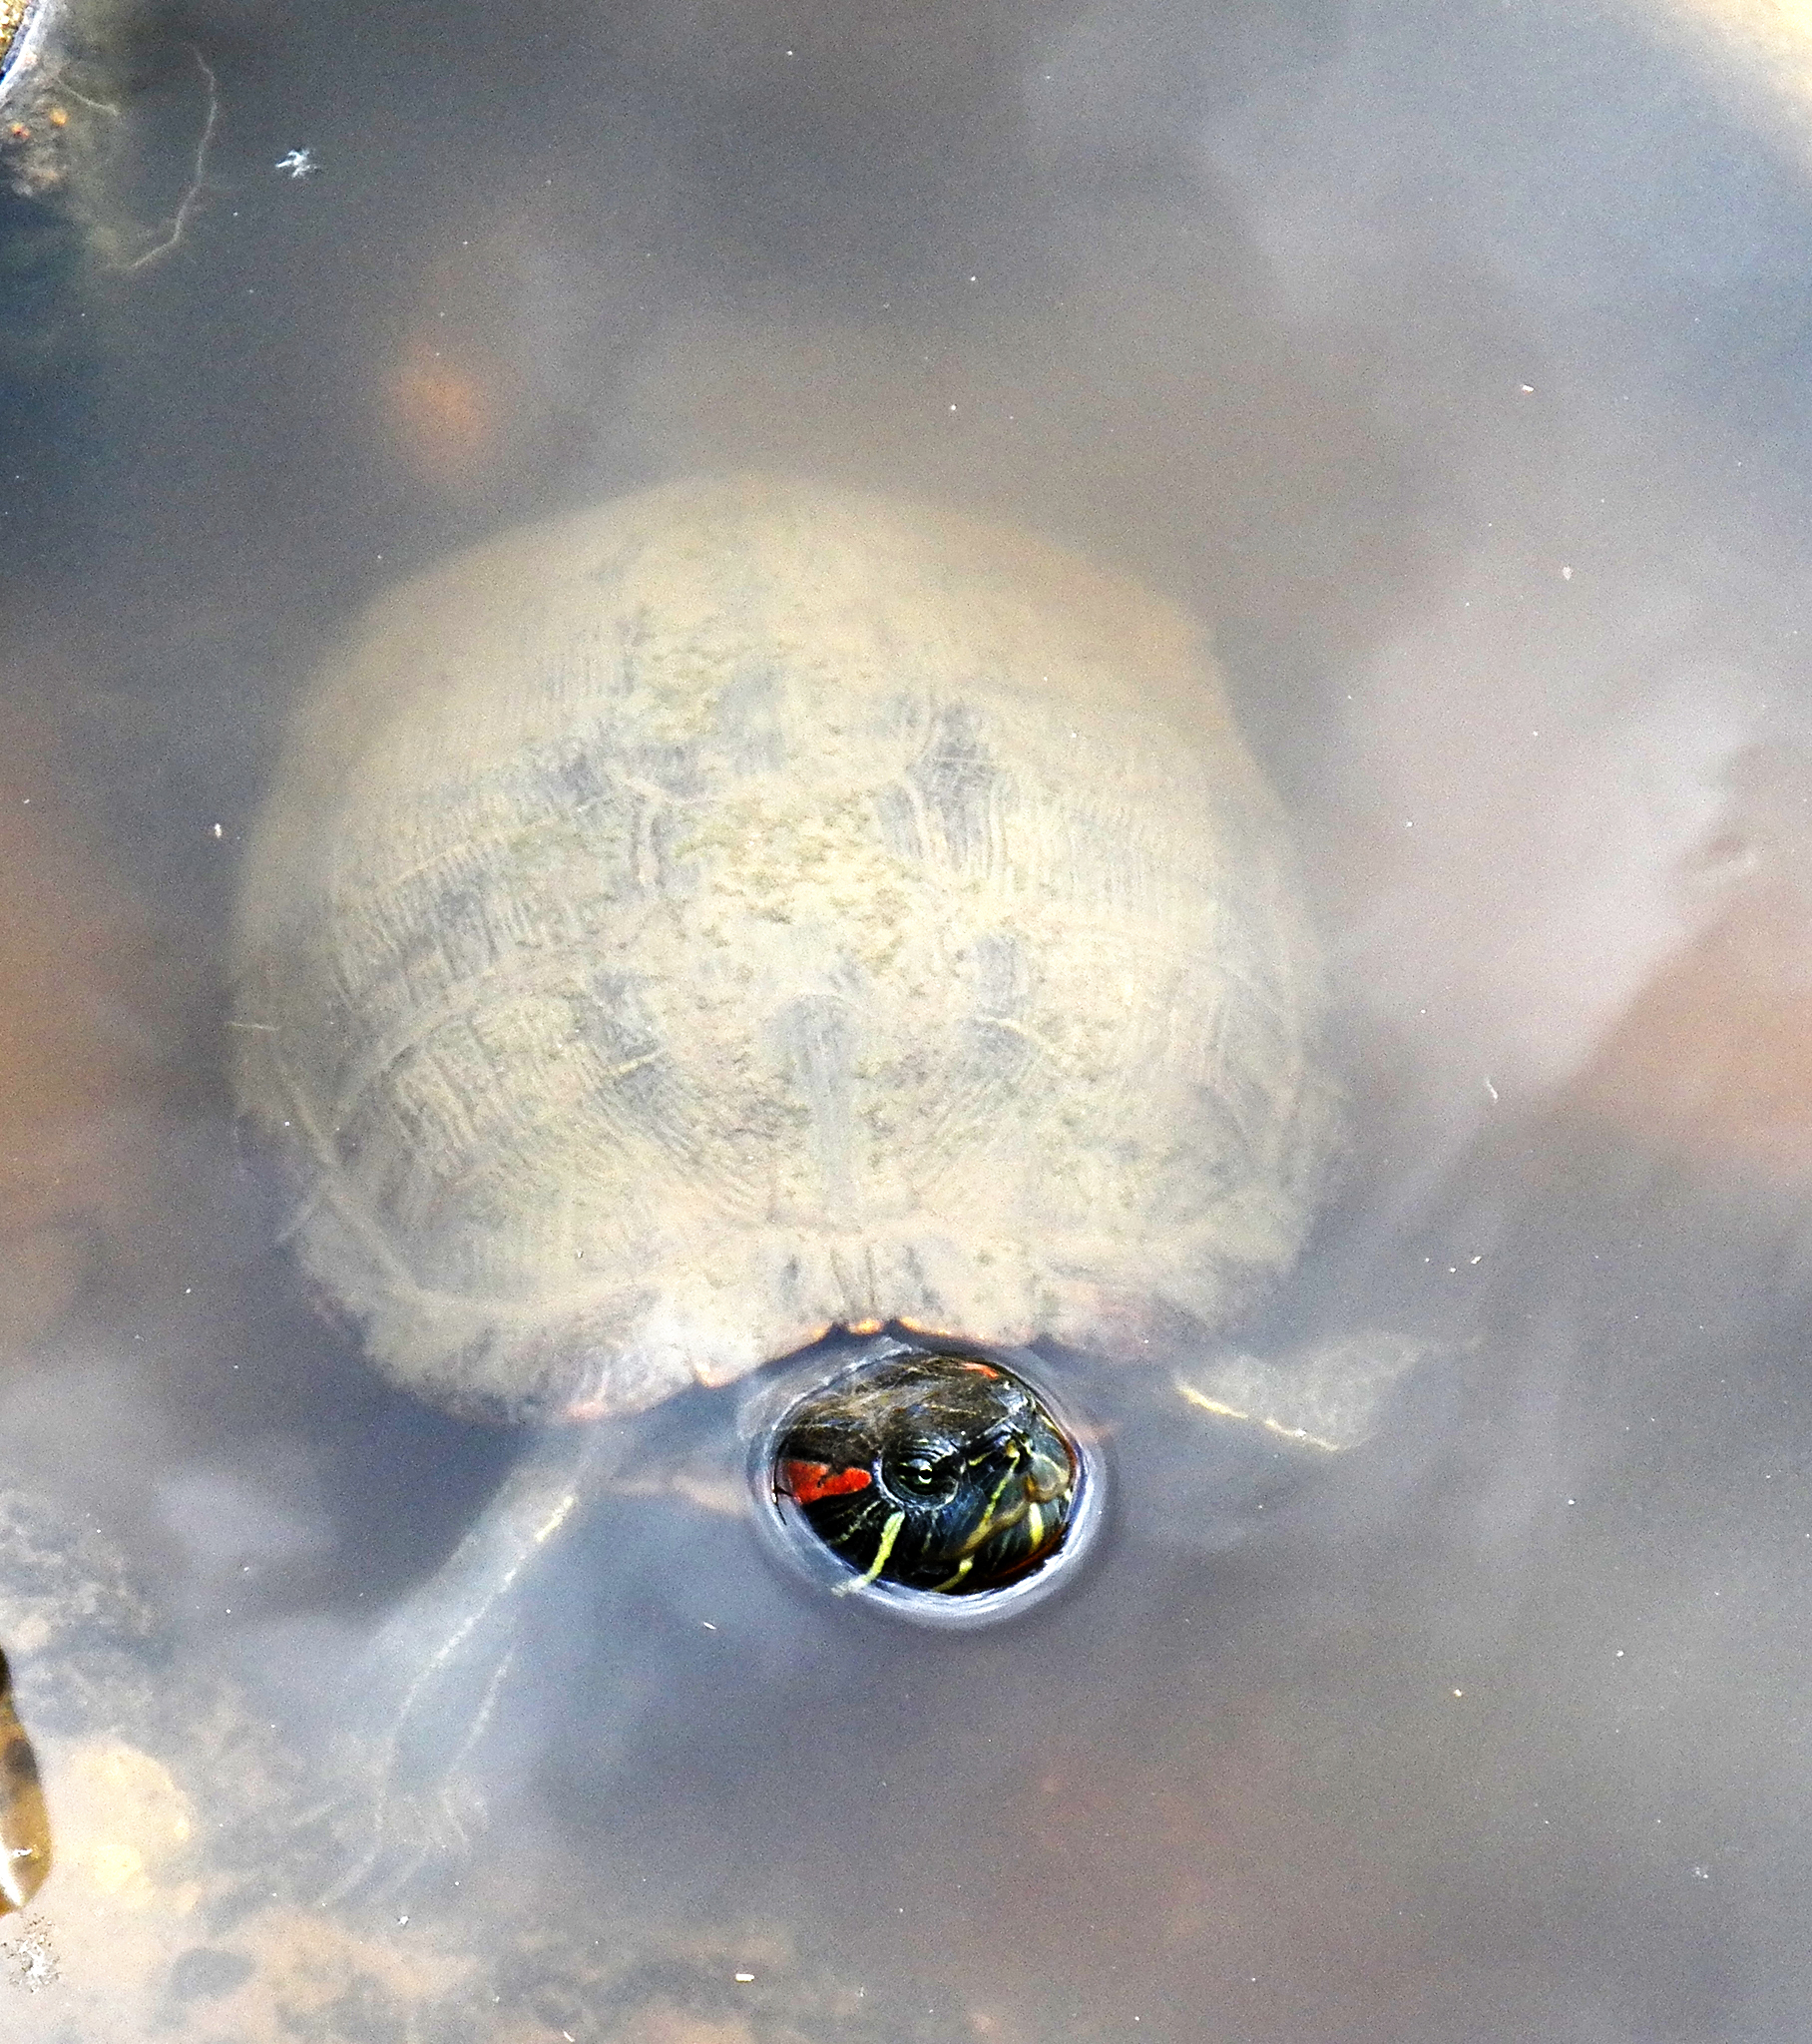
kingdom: Animalia
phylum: Chordata
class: Testudines
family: Emydidae
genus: Trachemys
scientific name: Trachemys scripta
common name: Slider
